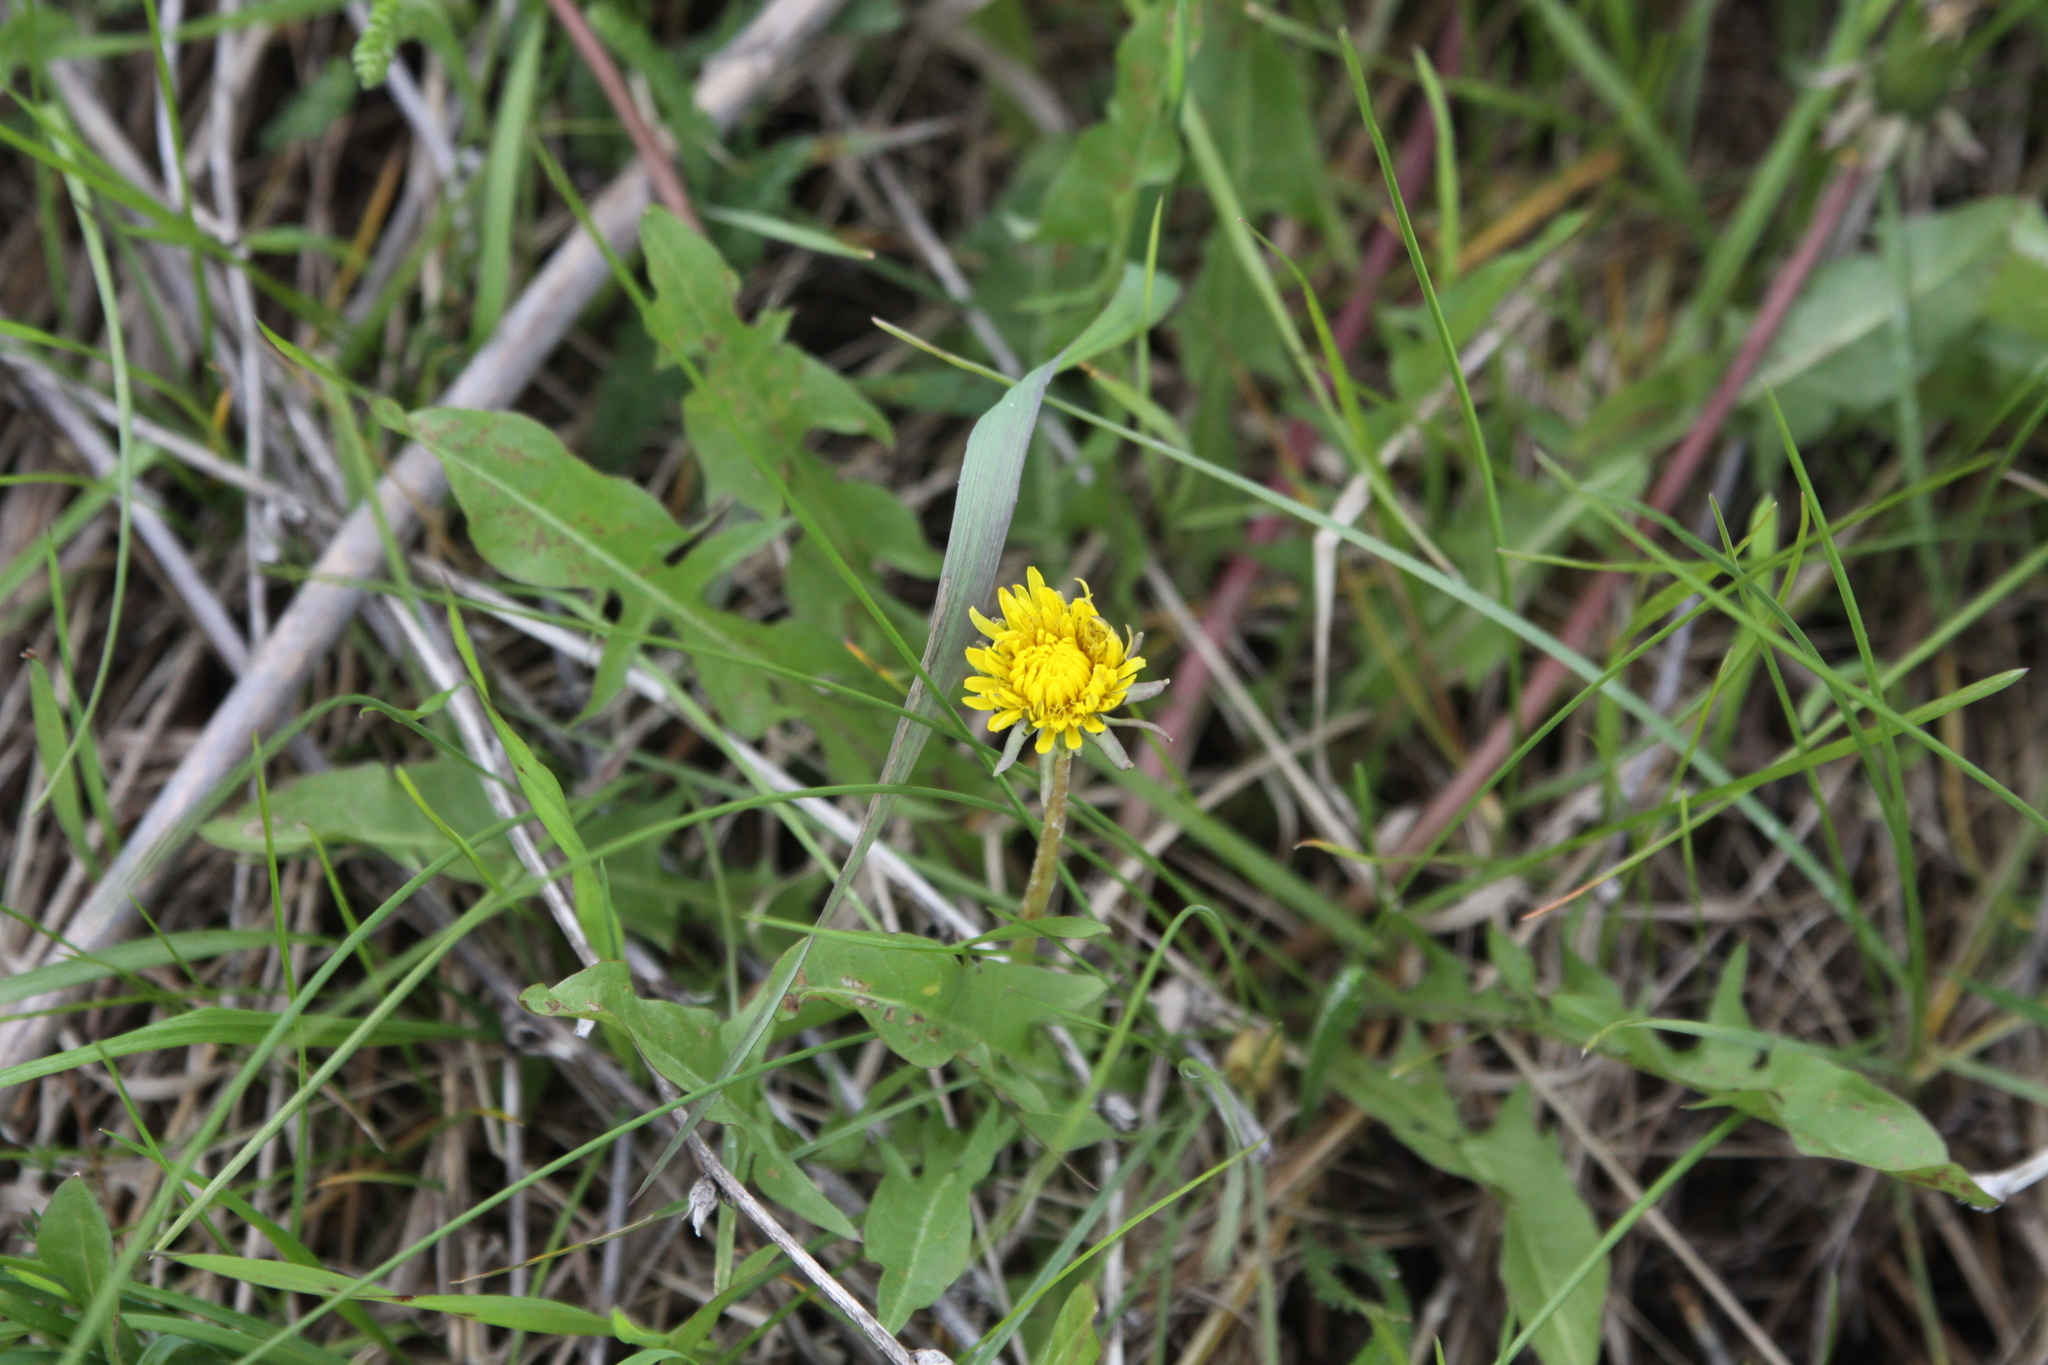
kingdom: Plantae
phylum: Tracheophyta
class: Magnoliopsida
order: Asterales
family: Asteraceae
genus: Taraxacum
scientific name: Taraxacum officinale
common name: Common dandelion
